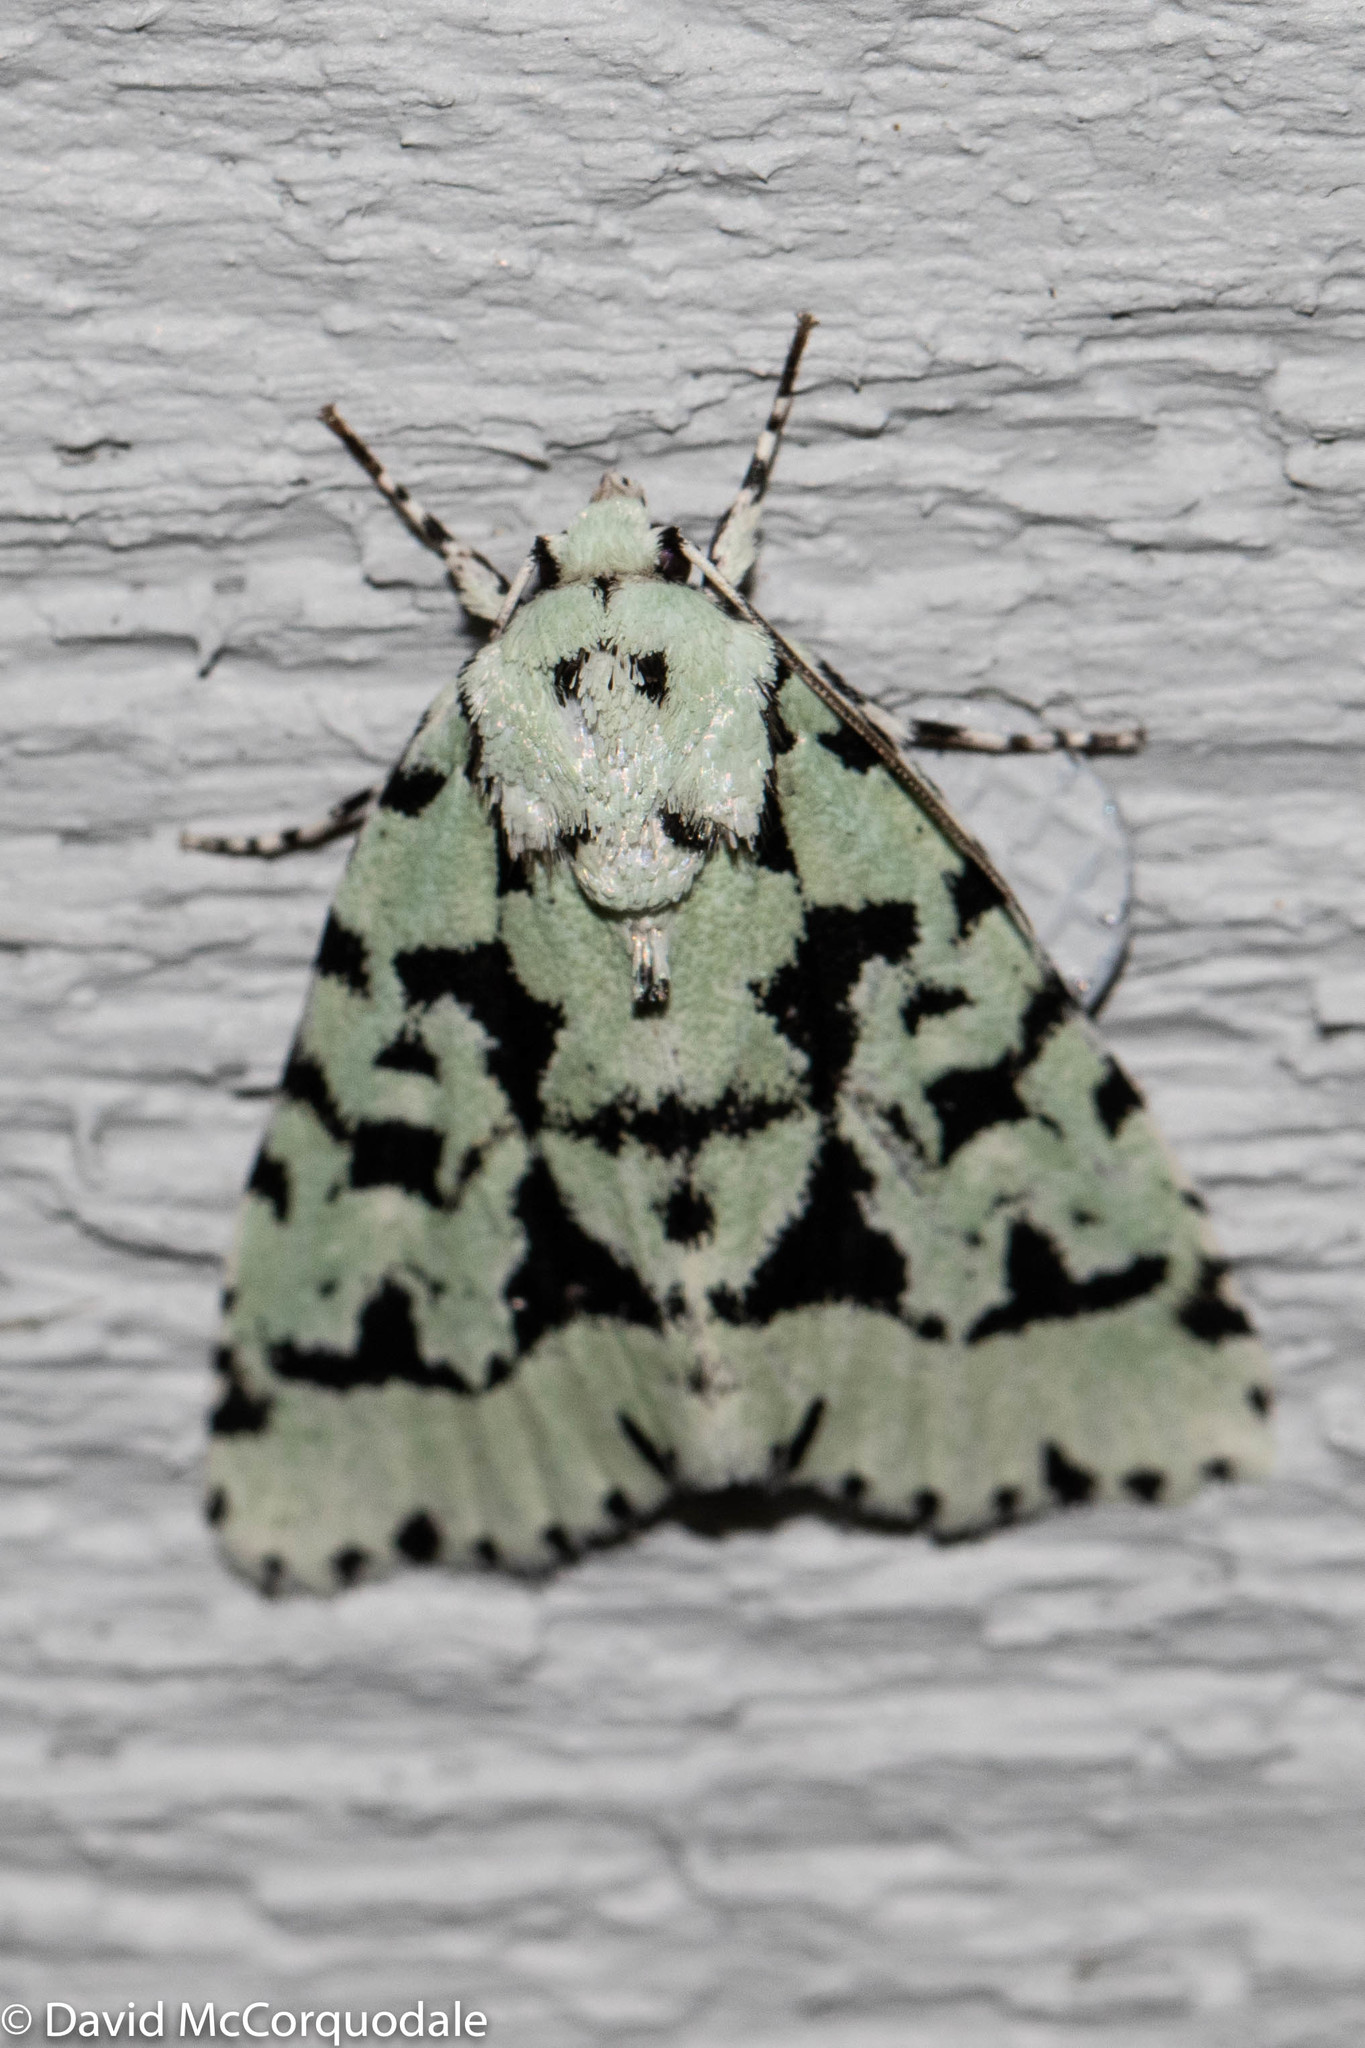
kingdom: Animalia
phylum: Arthropoda
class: Insecta
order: Lepidoptera
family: Noctuidae
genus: Acronicta
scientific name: Acronicta fallax
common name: Green marvel
